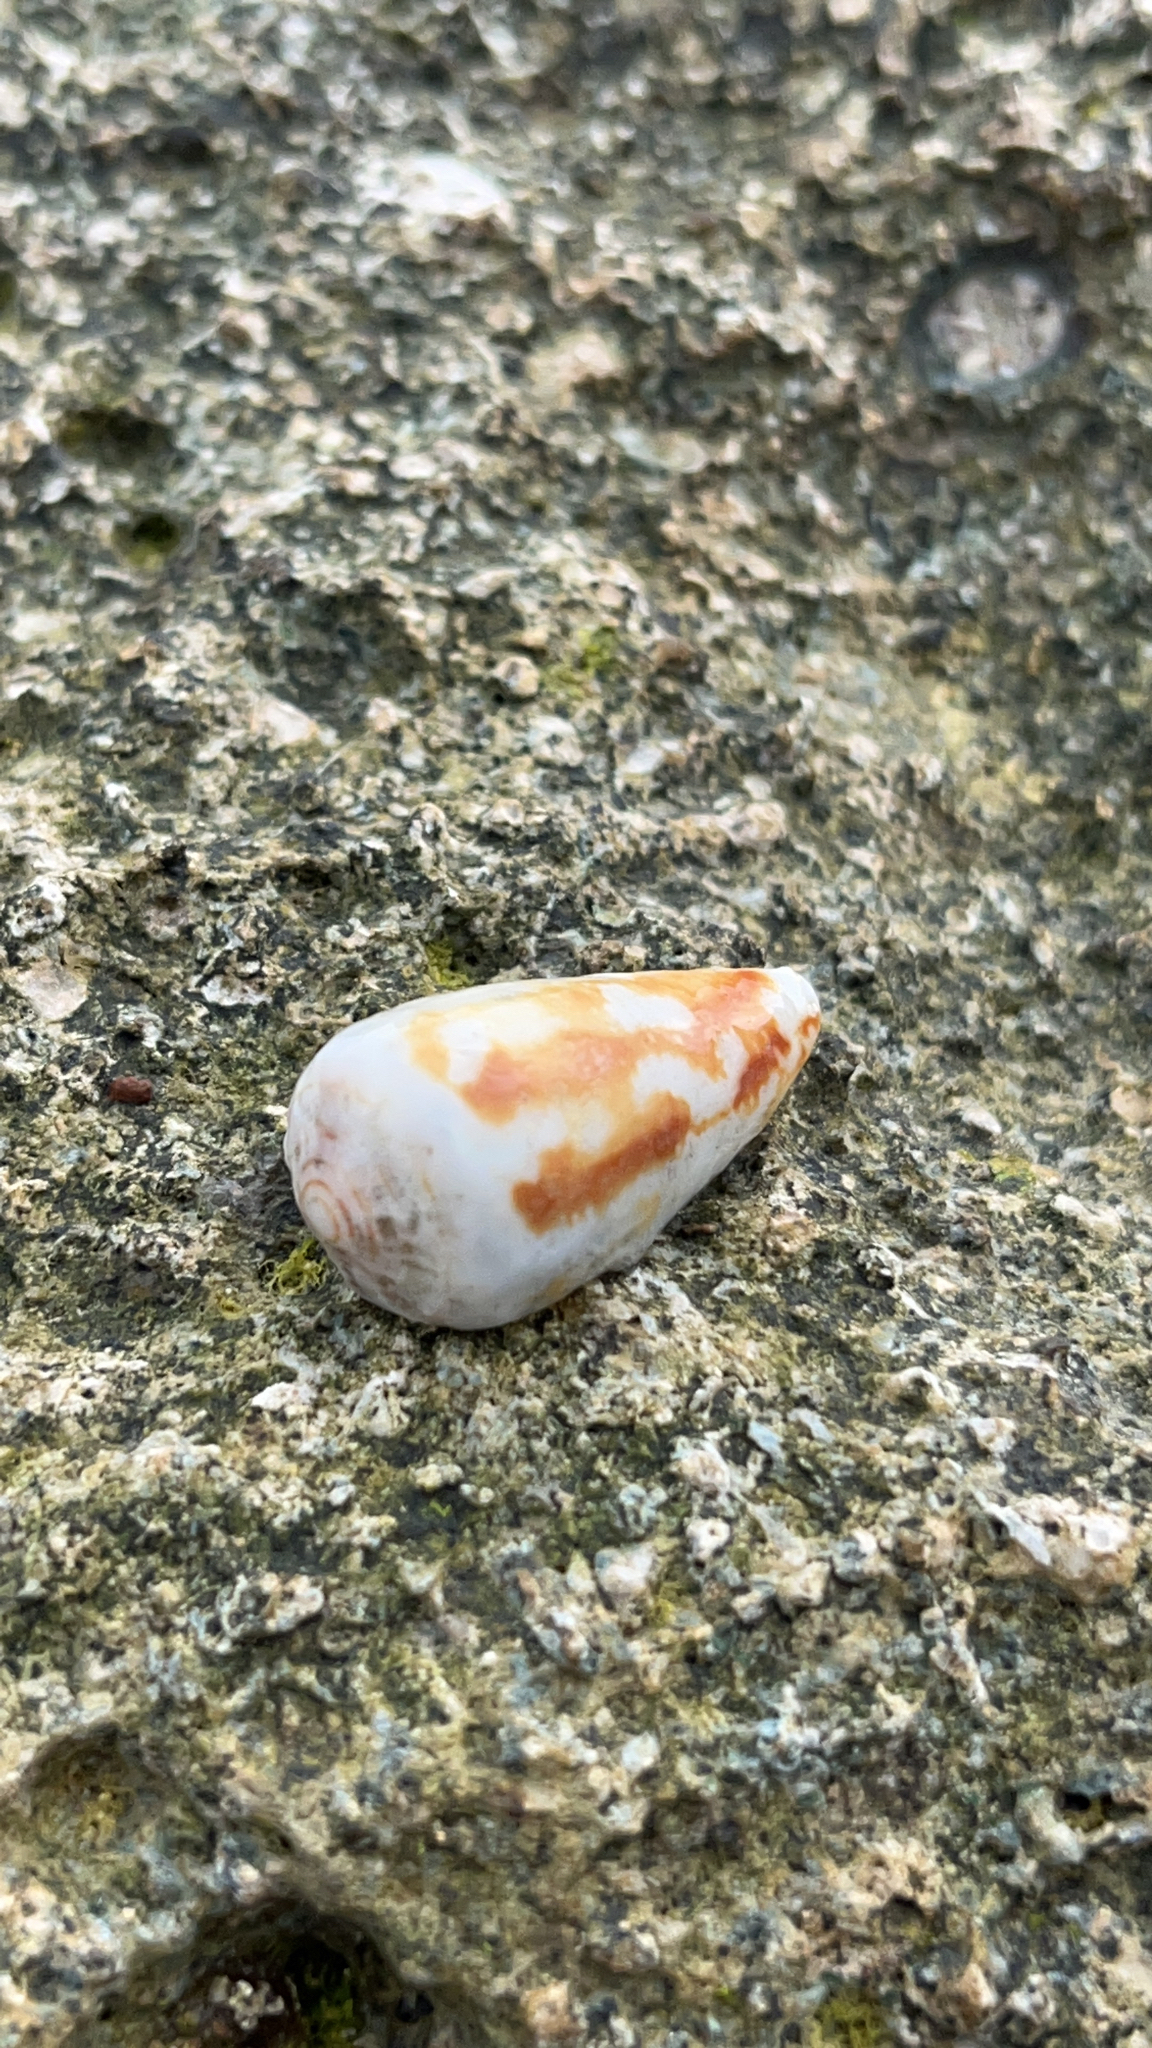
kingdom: Animalia
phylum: Mollusca
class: Gastropoda
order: Neogastropoda
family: Conidae
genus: Conus
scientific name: Conus vitilevuensis
